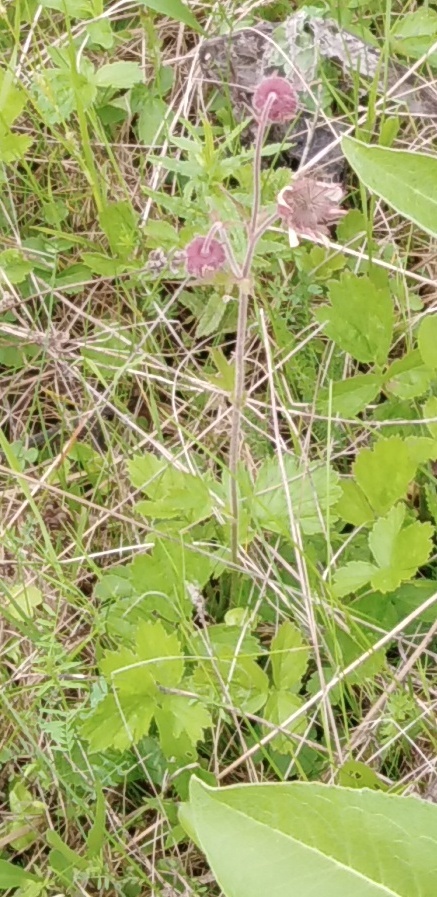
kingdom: Plantae
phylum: Tracheophyta
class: Magnoliopsida
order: Rosales
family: Rosaceae
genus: Geum
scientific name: Geum rivale
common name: Water avens
